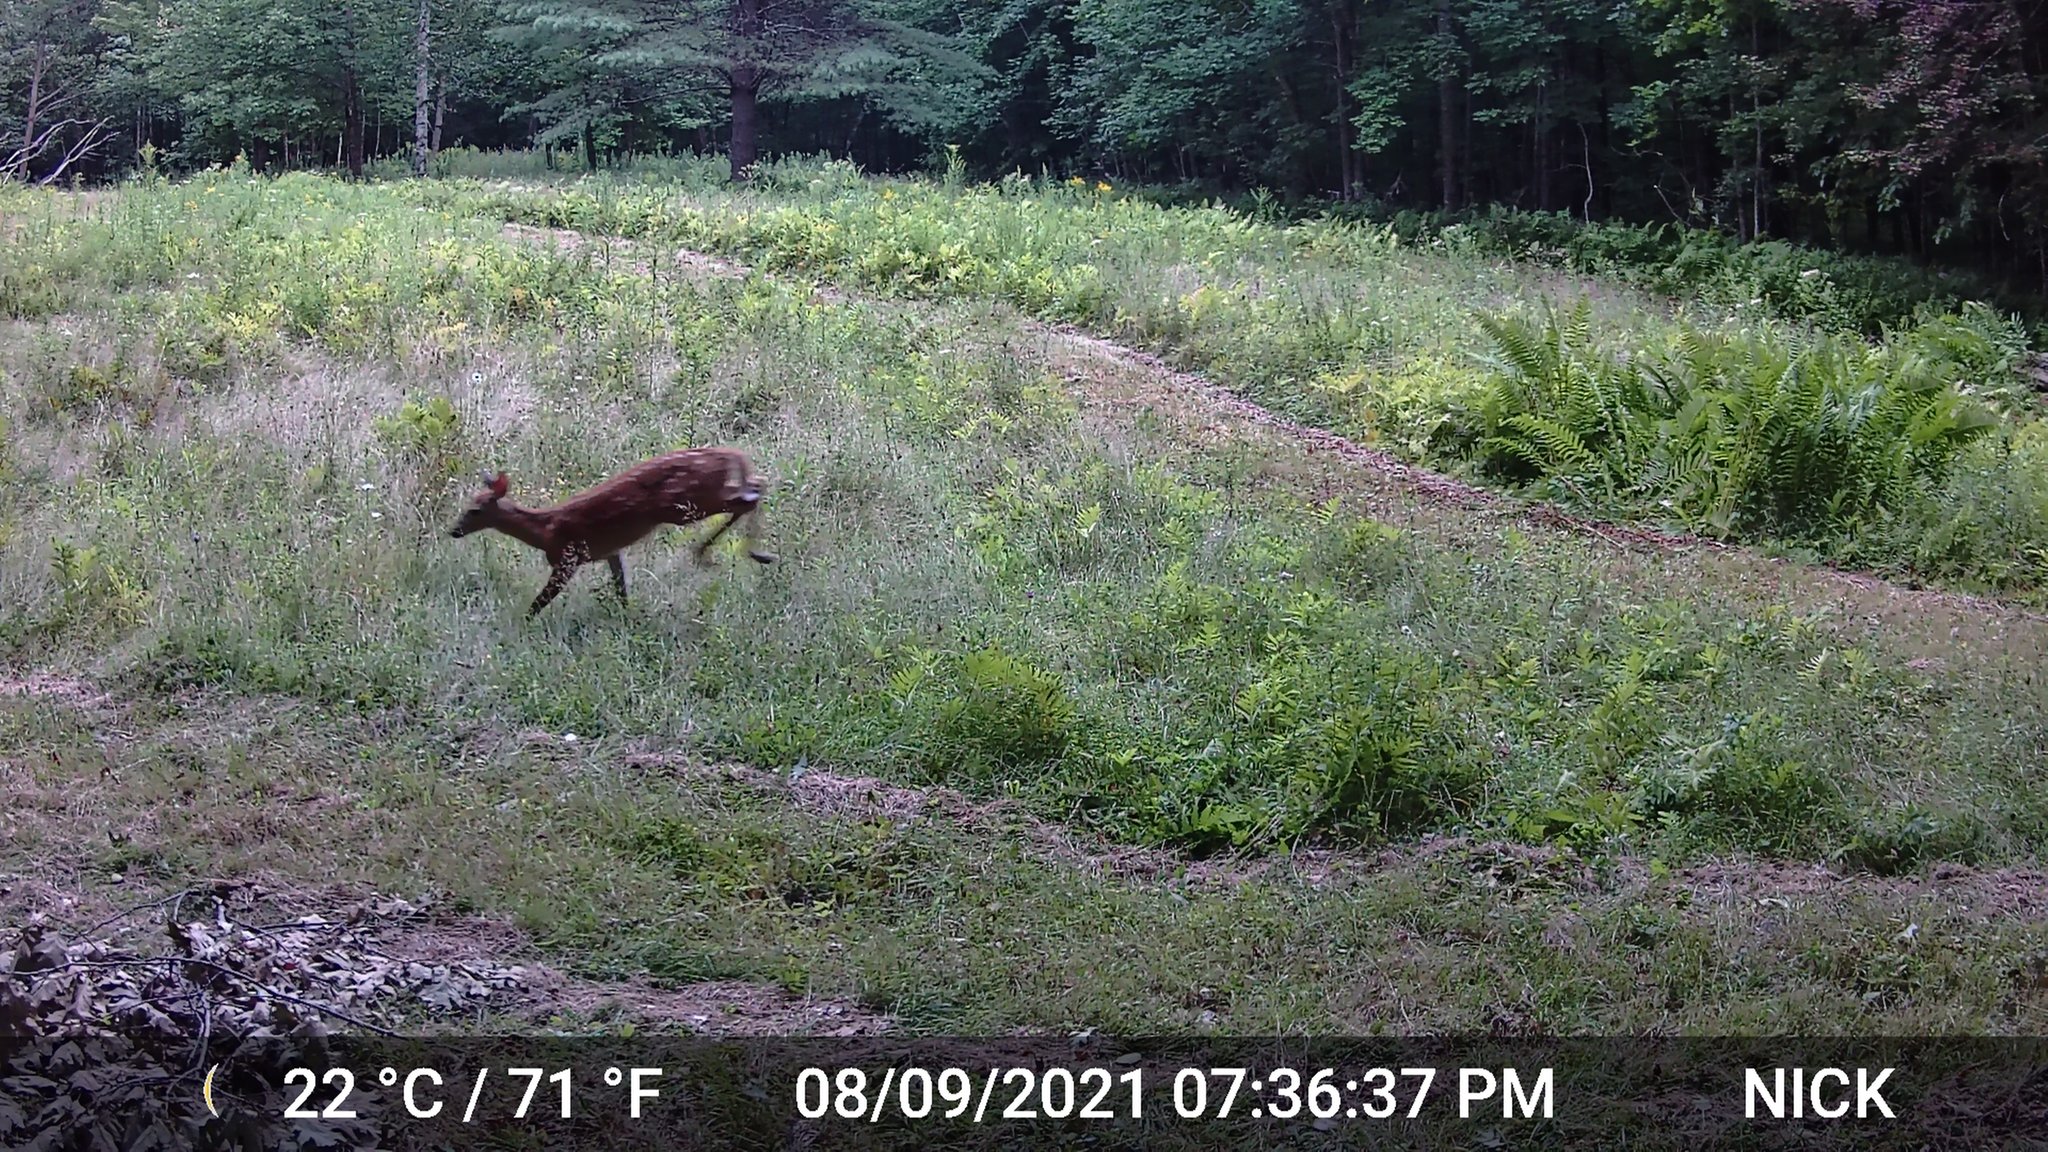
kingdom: Animalia
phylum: Chordata
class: Mammalia
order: Artiodactyla
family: Cervidae
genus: Odocoileus
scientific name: Odocoileus virginianus
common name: White-tailed deer
